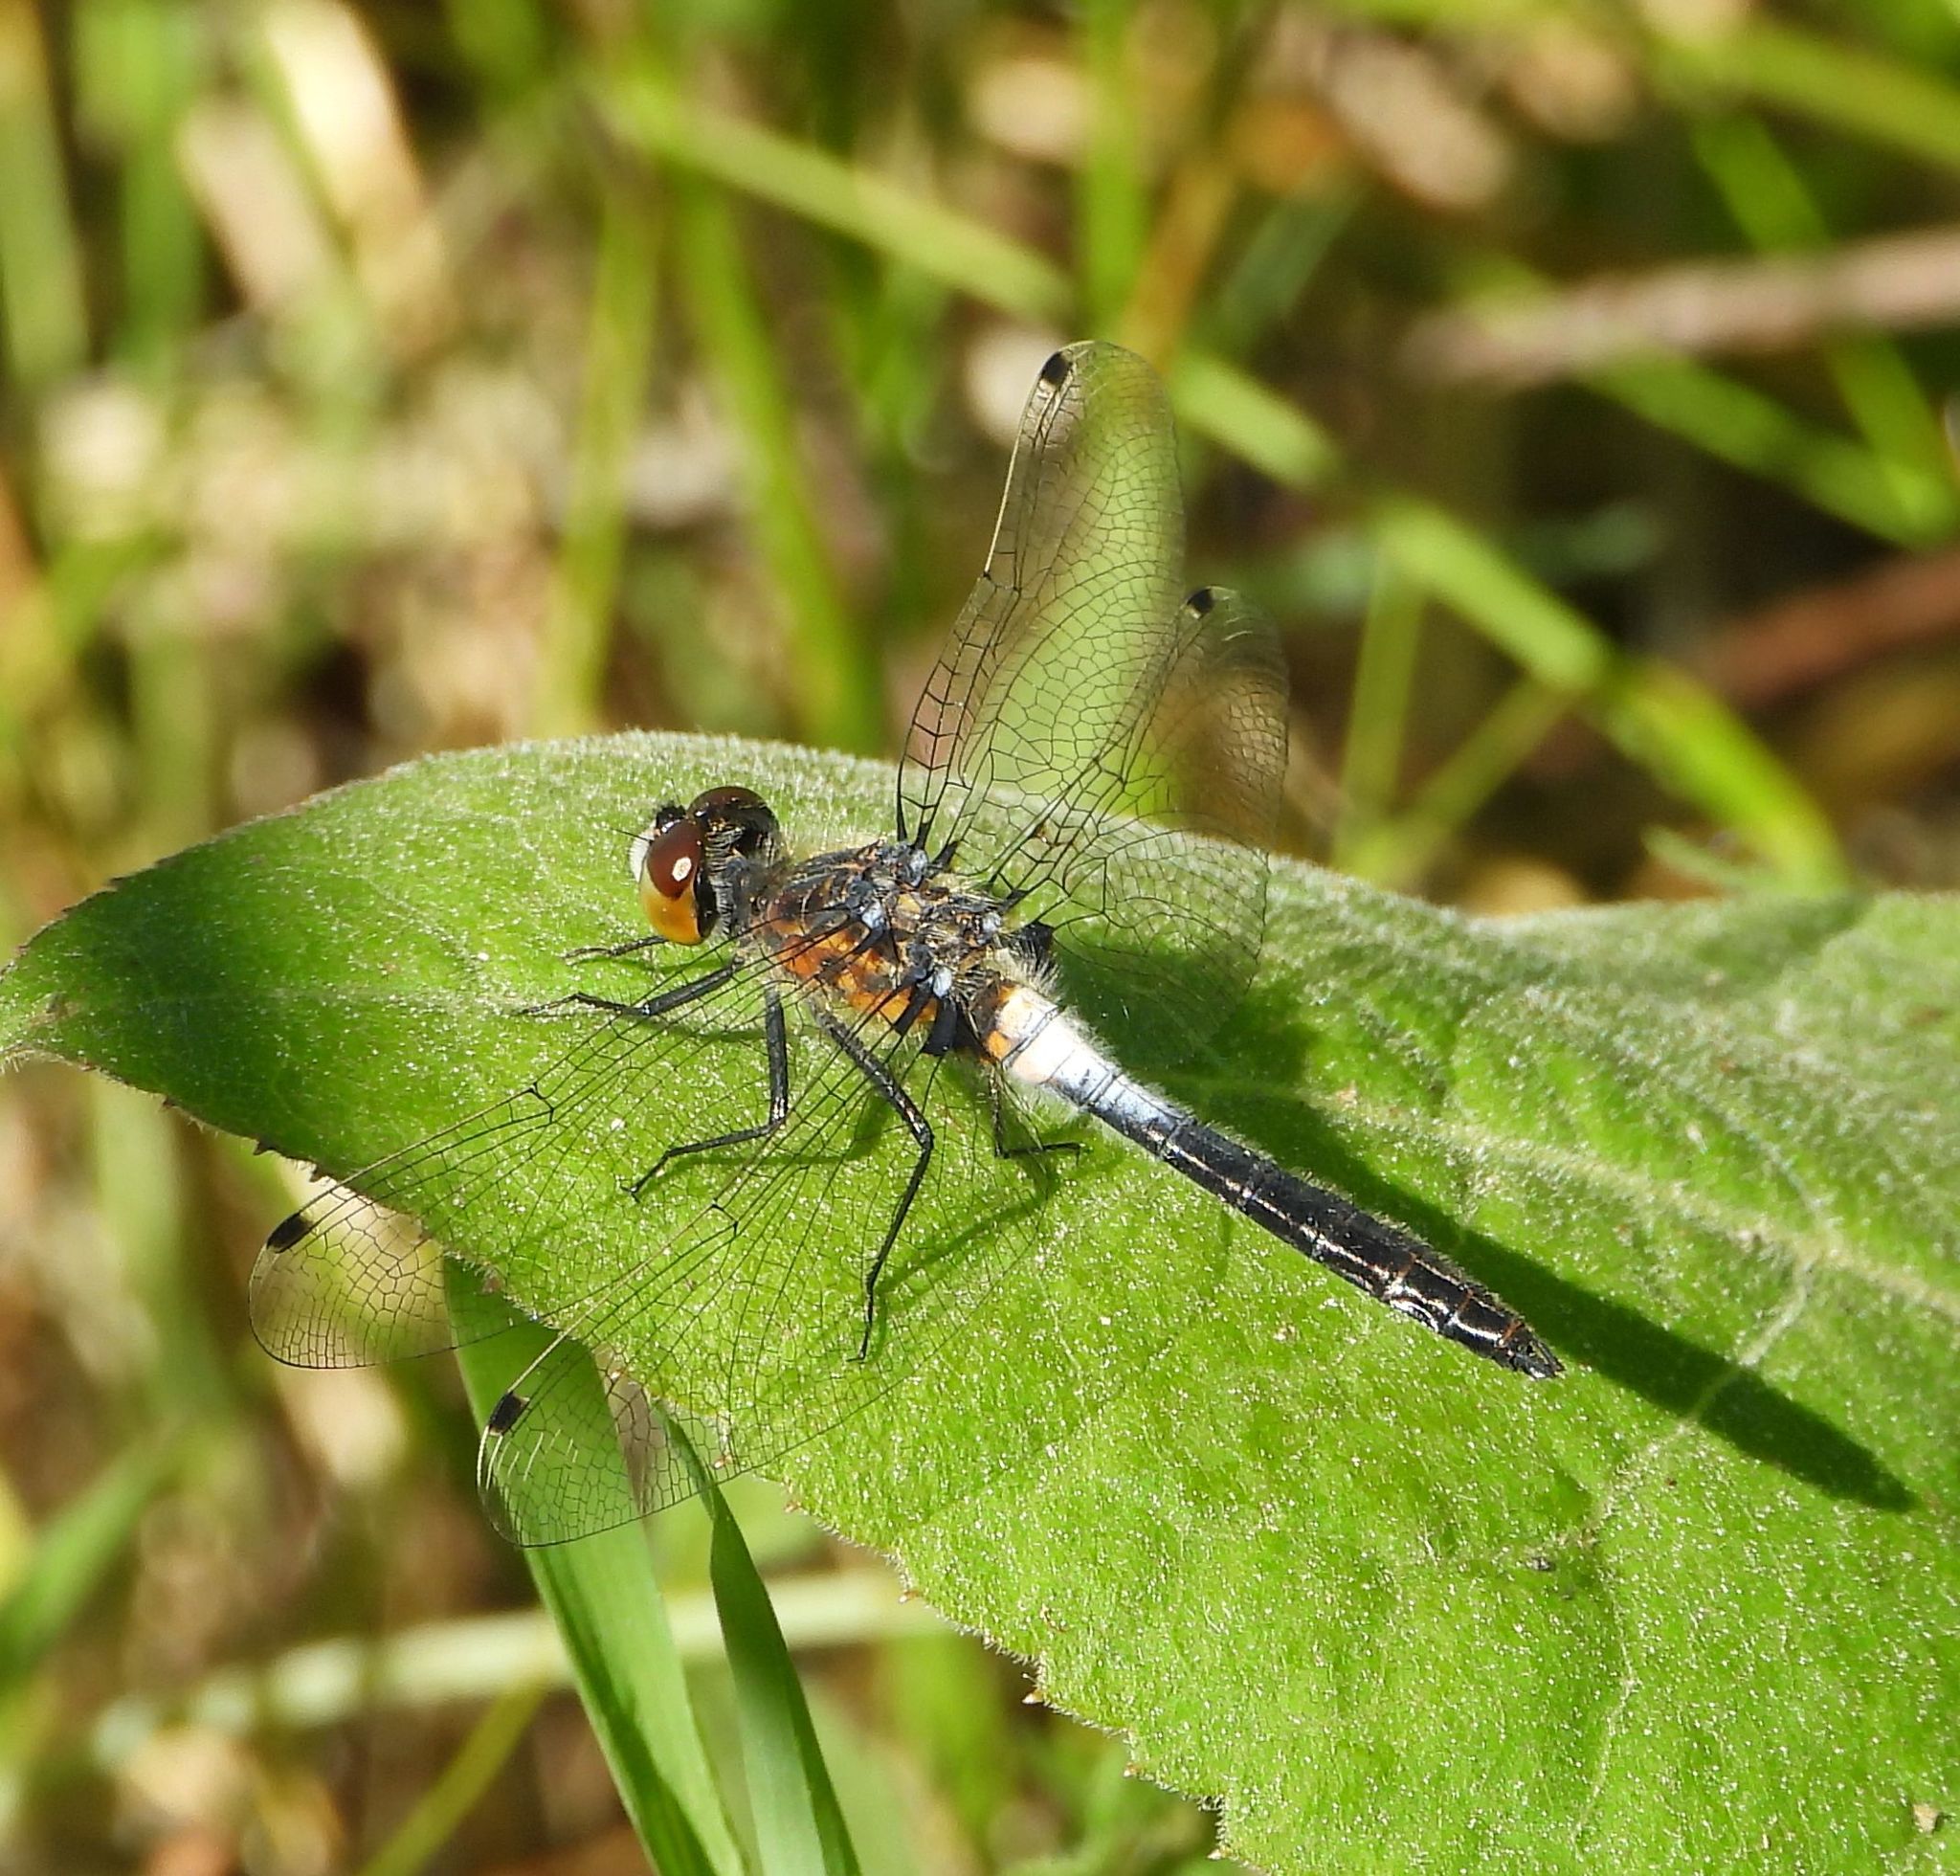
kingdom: Animalia
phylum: Arthropoda
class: Insecta
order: Odonata
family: Libellulidae
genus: Leucorrhinia
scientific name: Leucorrhinia frigida
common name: Frosted whiteface
